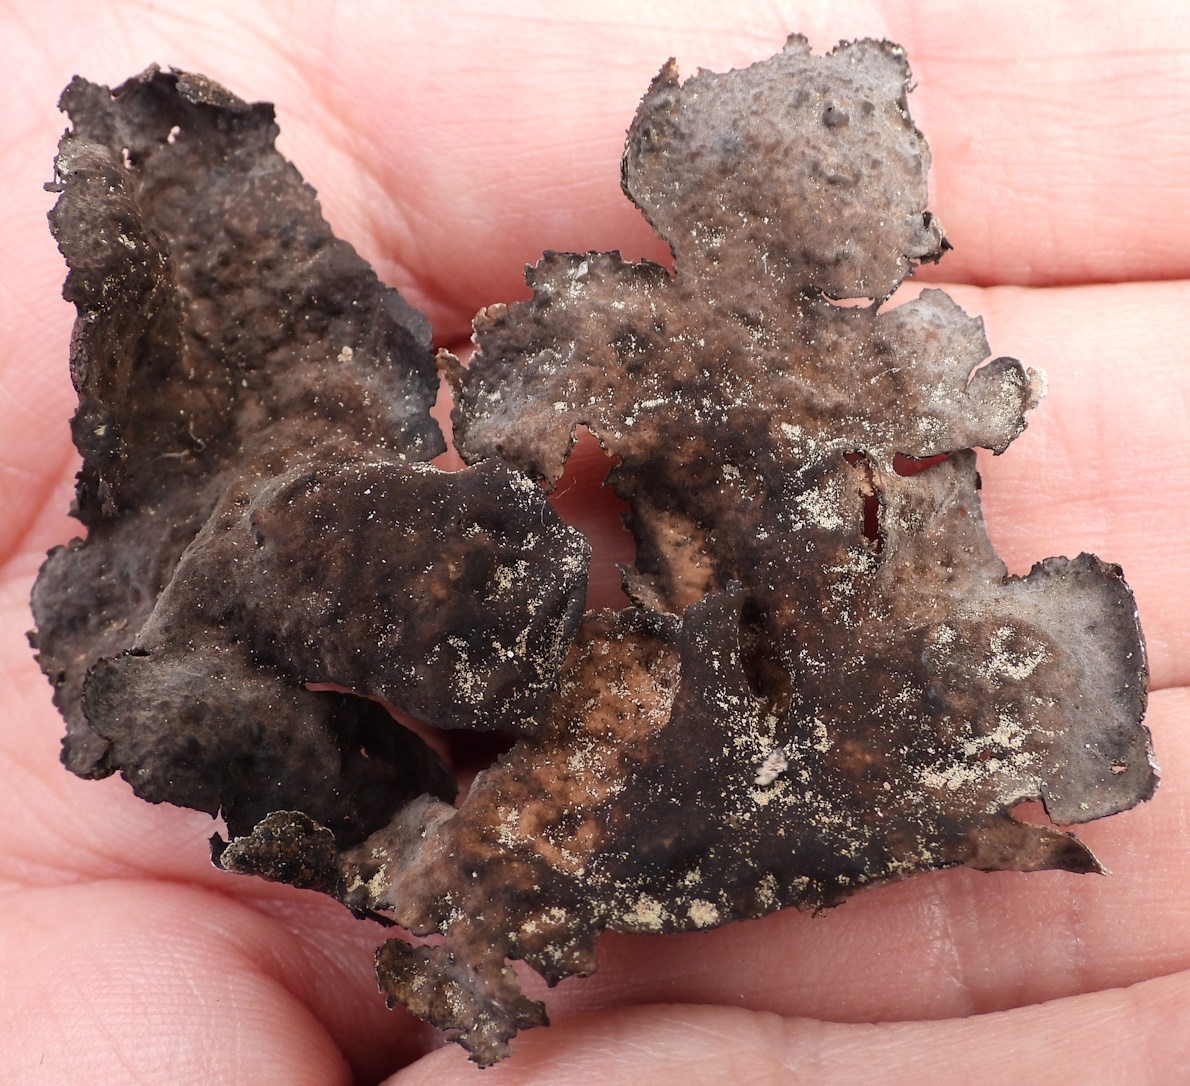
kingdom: Fungi
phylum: Ascomycota
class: Lecanoromycetes
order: Umbilicariales
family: Umbilicariaceae
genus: Umbilicaria
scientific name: Umbilicaria torrefacta
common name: Punctured rock tripe lichen
